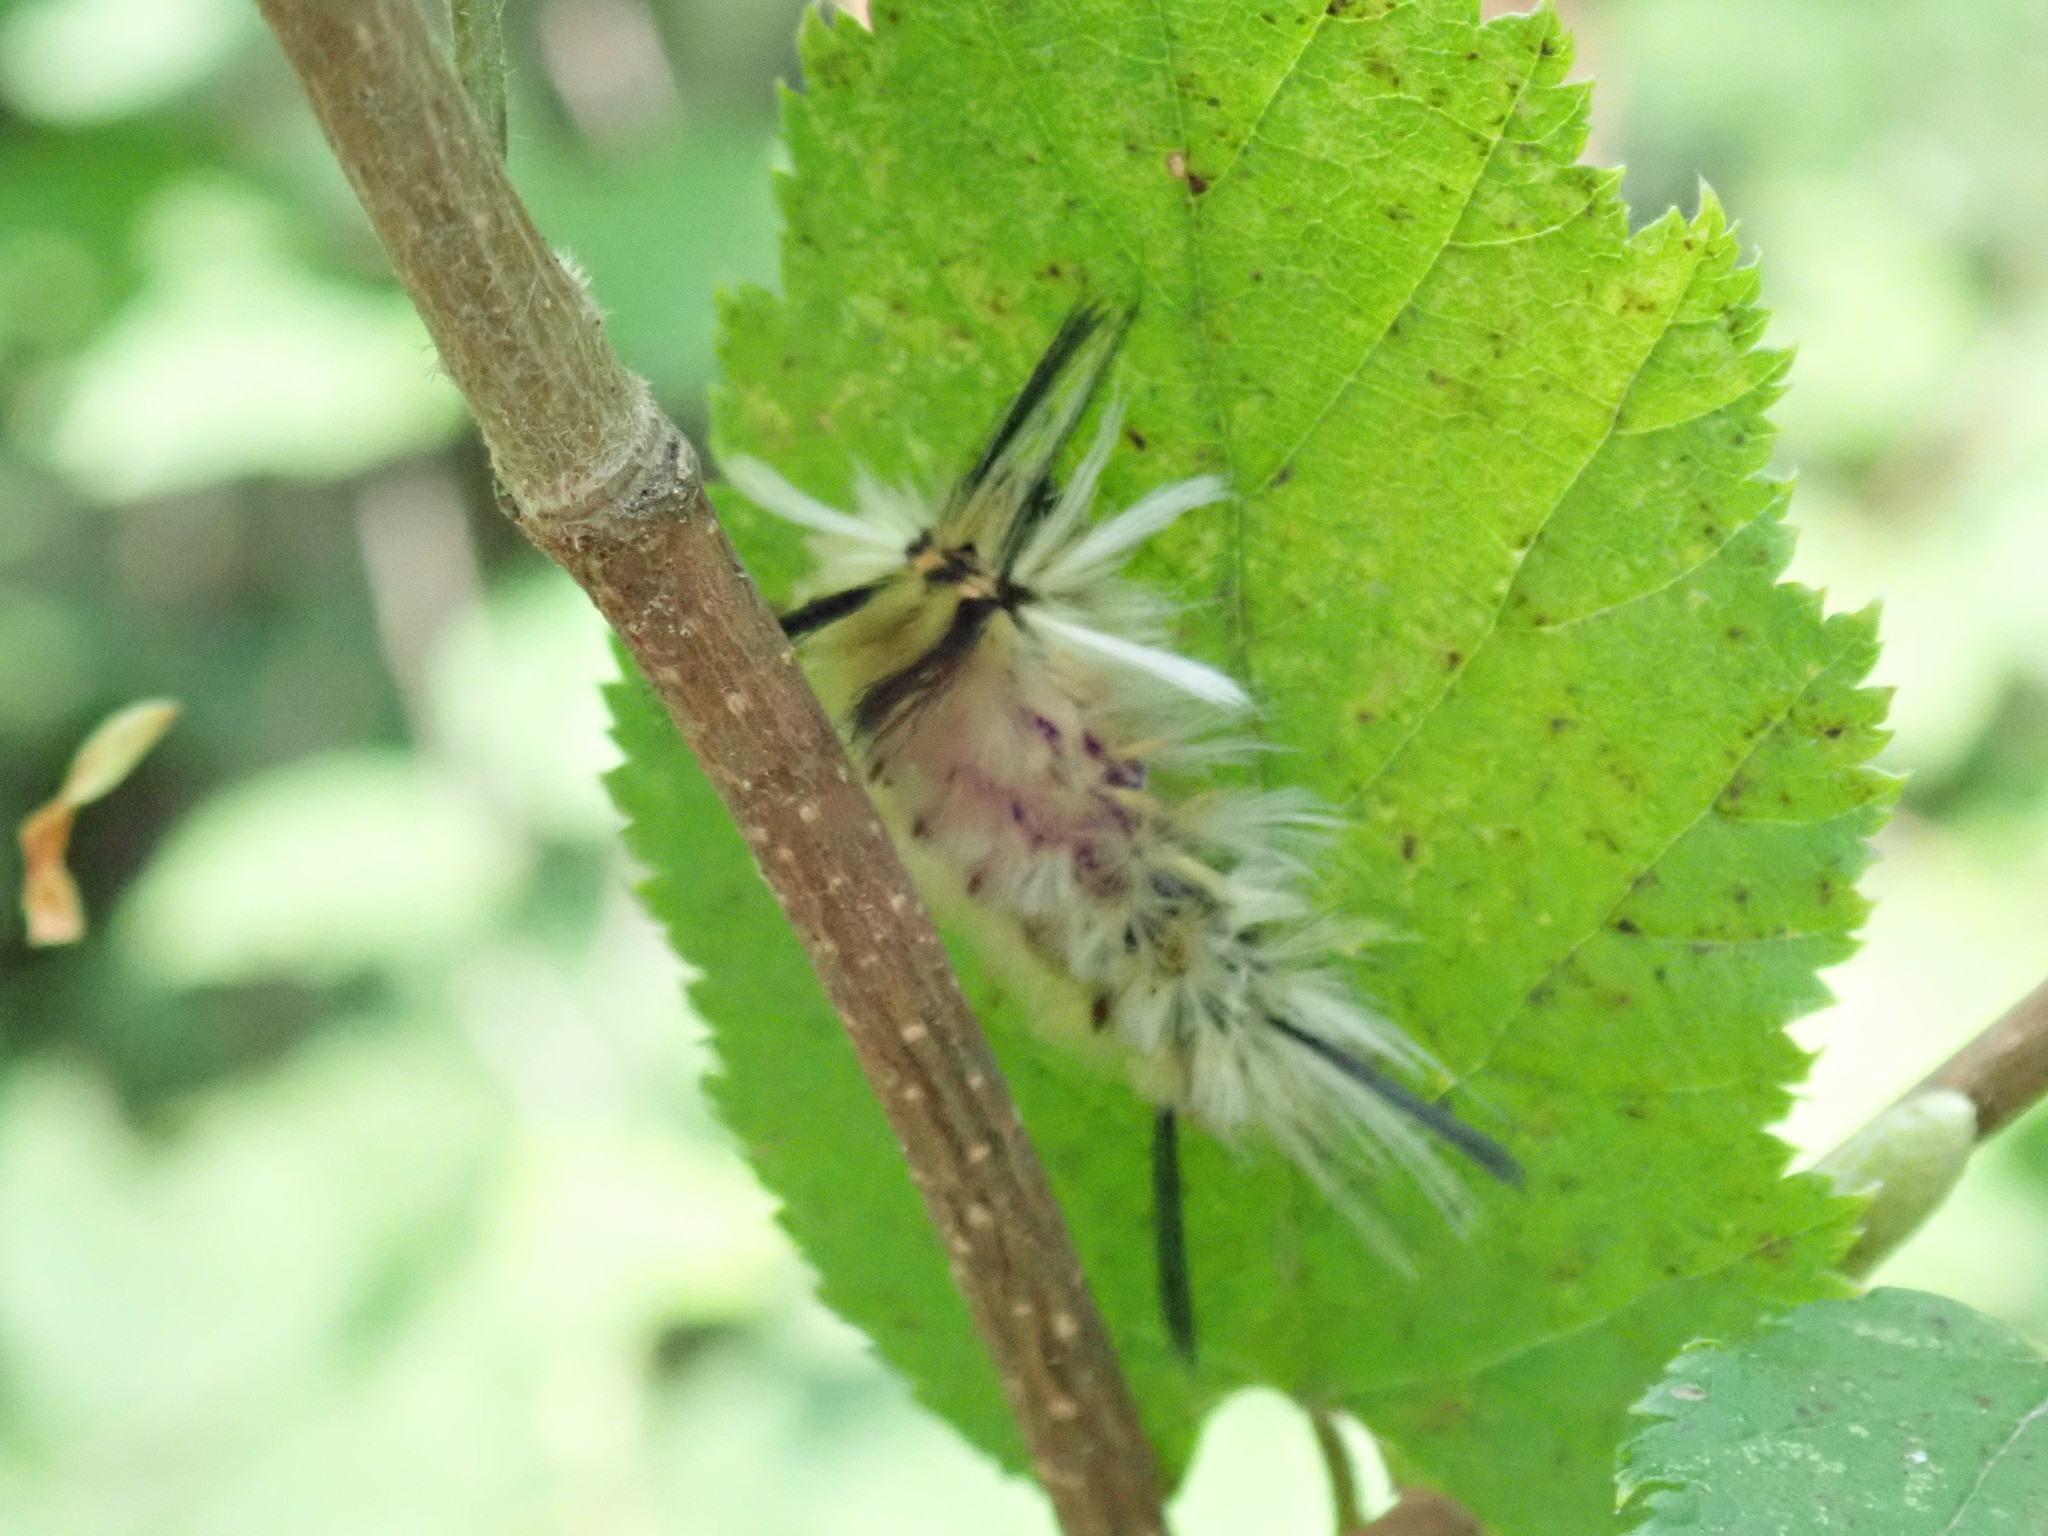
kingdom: Animalia
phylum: Arthropoda
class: Insecta
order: Lepidoptera
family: Erebidae
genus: Halysidota
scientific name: Halysidota tessellaris
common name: Banded tussock moth
